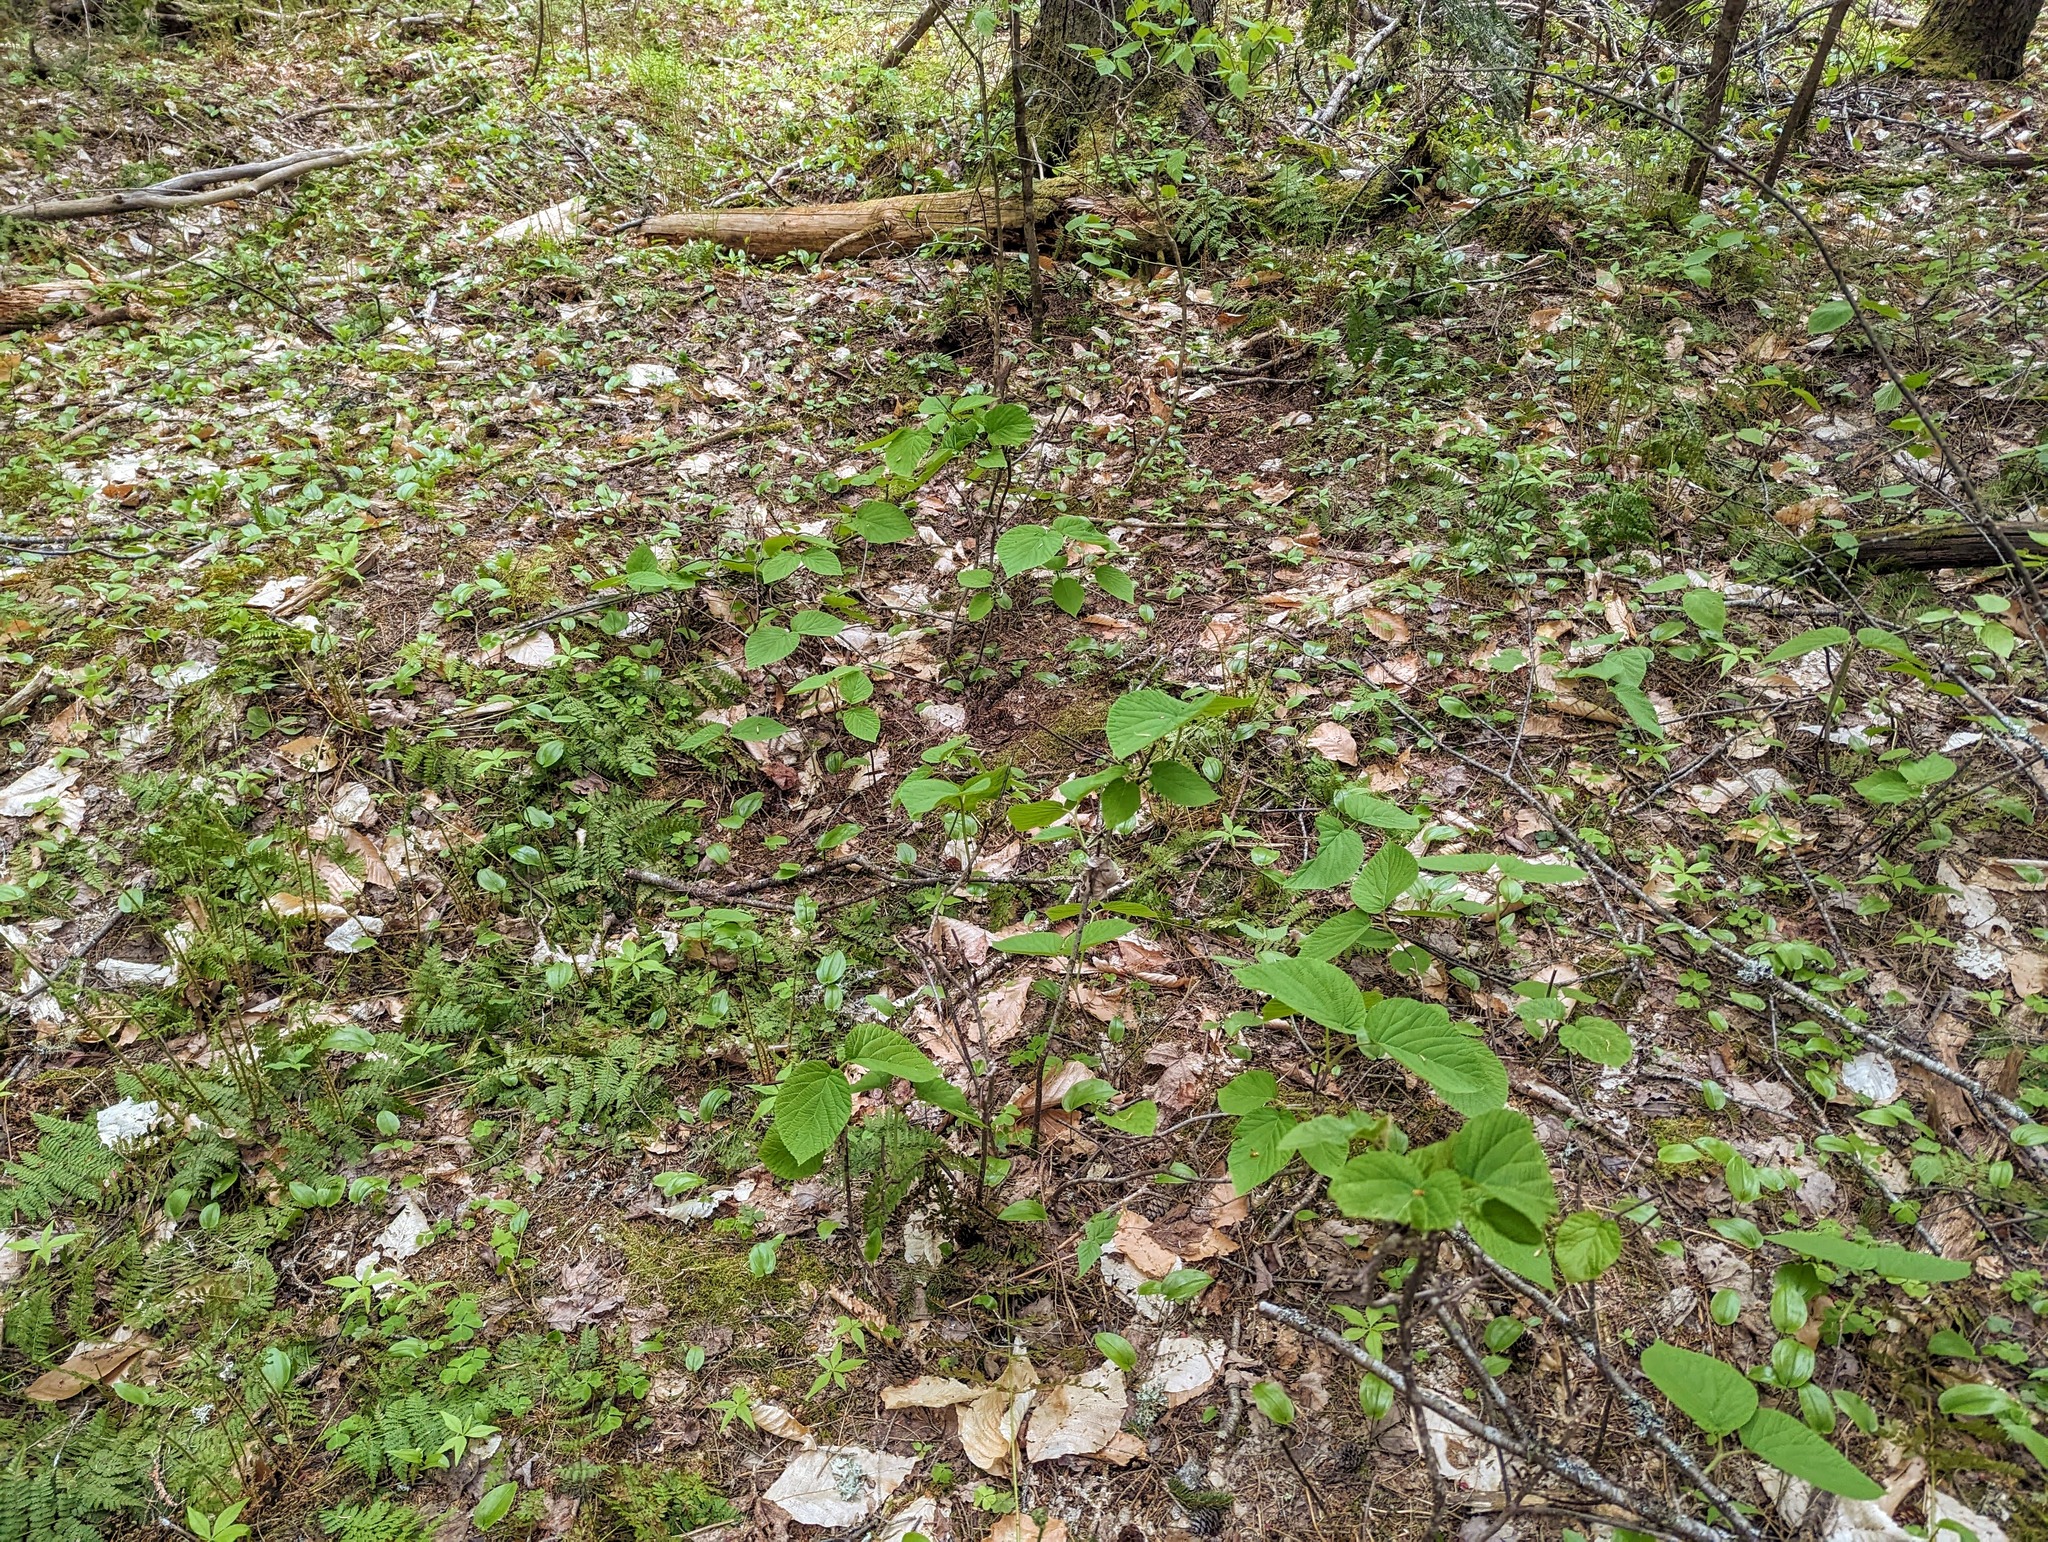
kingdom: Plantae
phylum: Tracheophyta
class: Magnoliopsida
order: Dipsacales
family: Viburnaceae
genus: Viburnum
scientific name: Viburnum lantanoides
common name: Hobblebush
